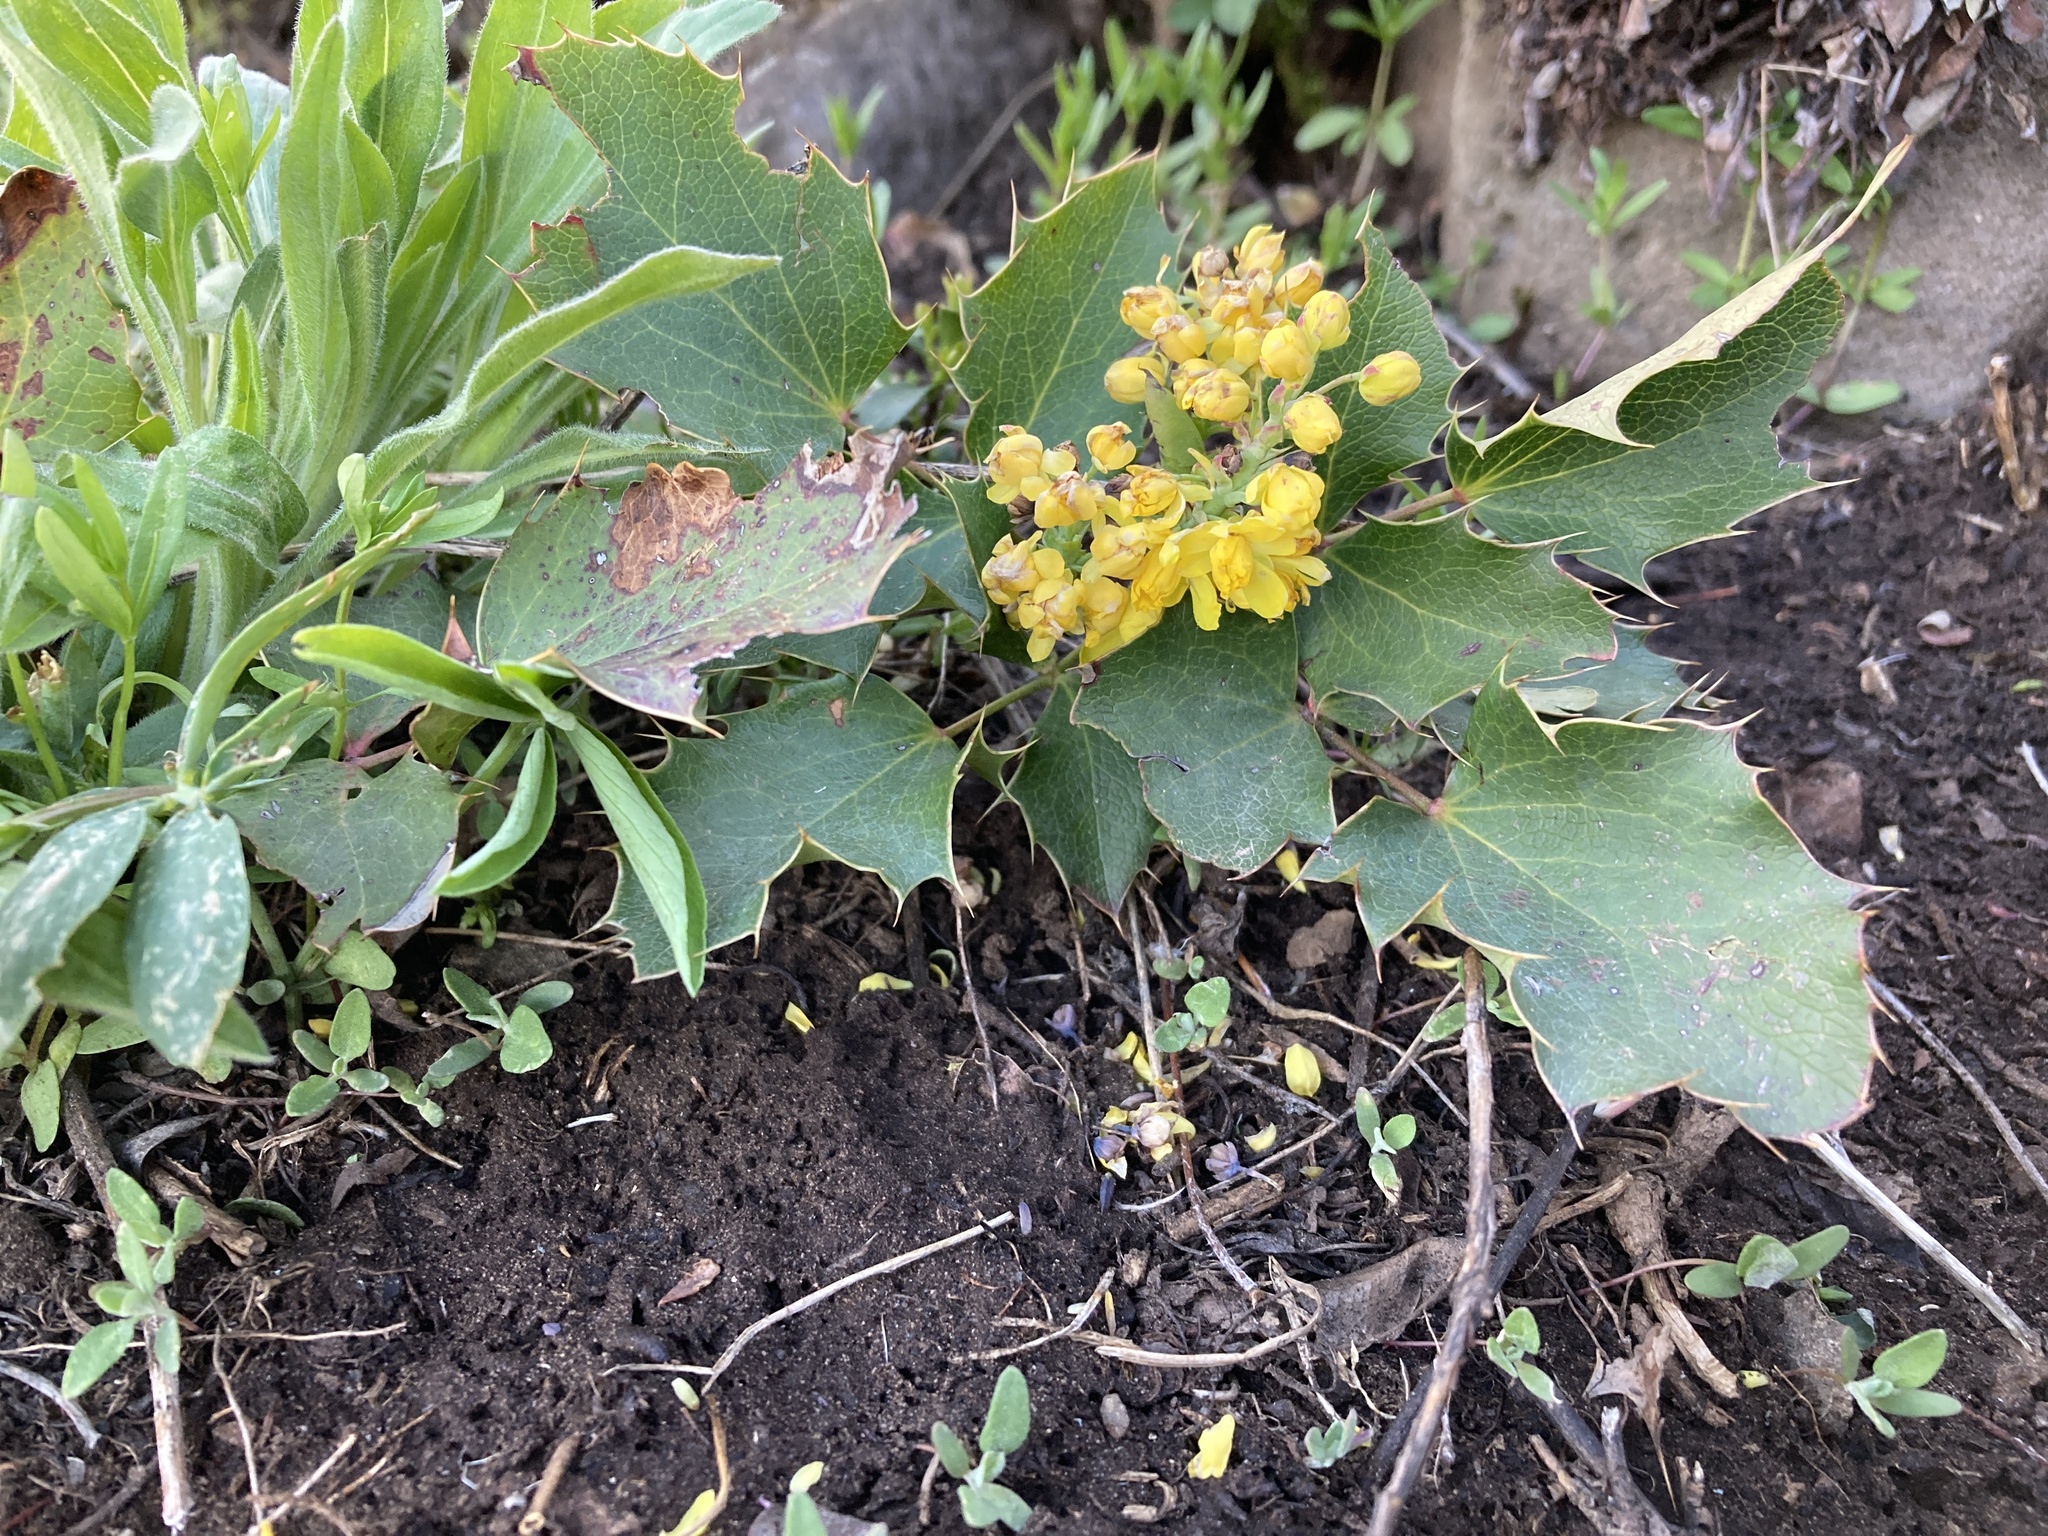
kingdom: Plantae
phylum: Tracheophyta
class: Magnoliopsida
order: Ranunculales
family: Berberidaceae
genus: Mahonia
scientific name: Mahonia repens
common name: Creeping oregon-grape
